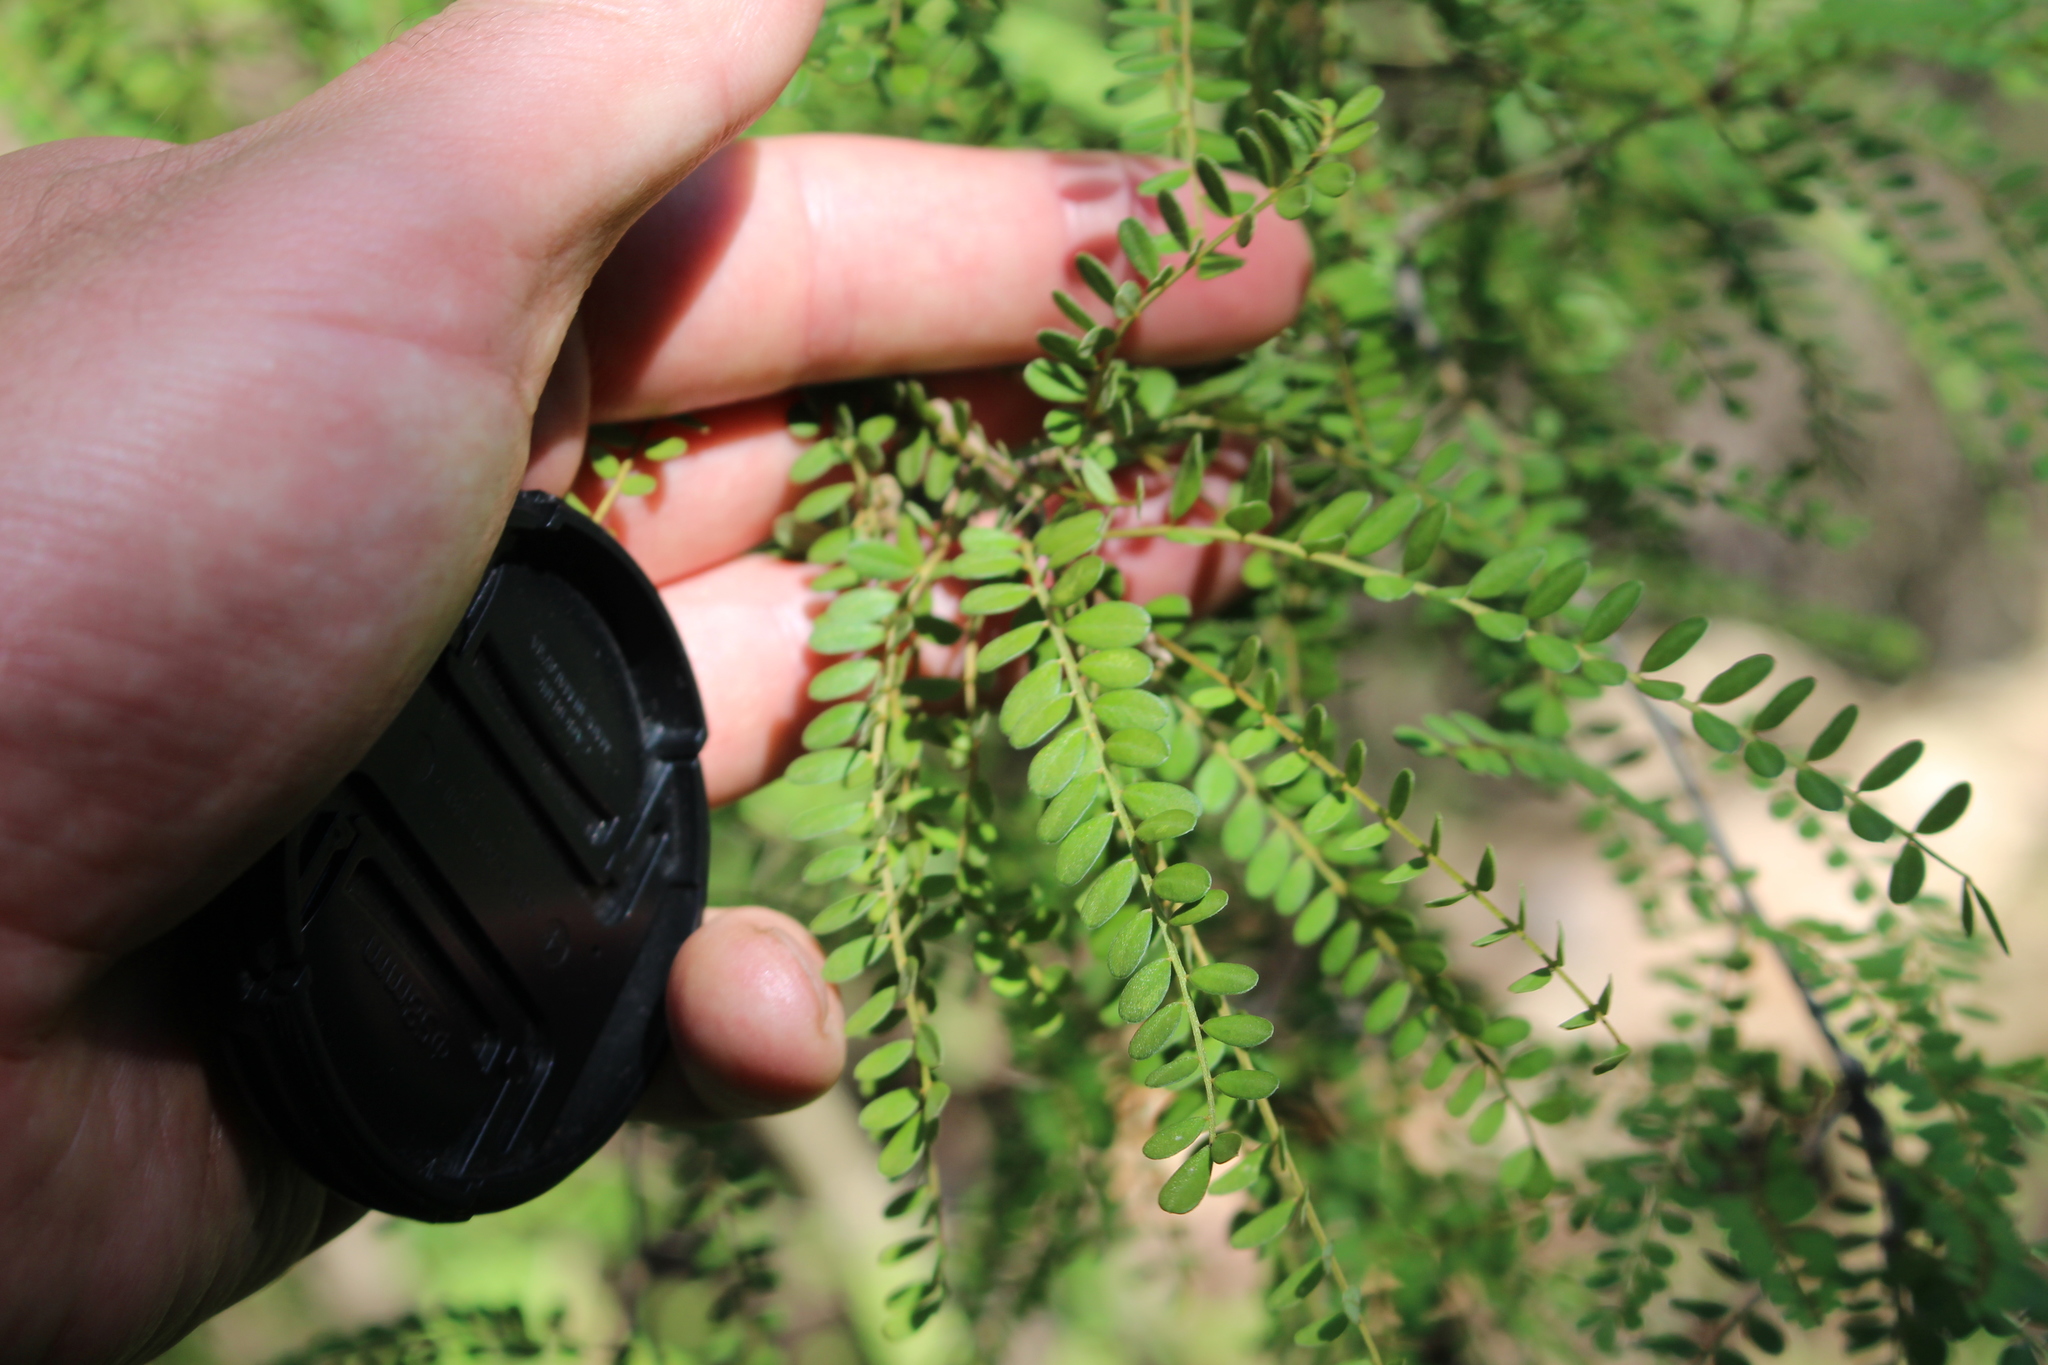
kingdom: Plantae
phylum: Tracheophyta
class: Magnoliopsida
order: Fabales
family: Fabaceae
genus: Sophora
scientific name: Sophora microphylla
